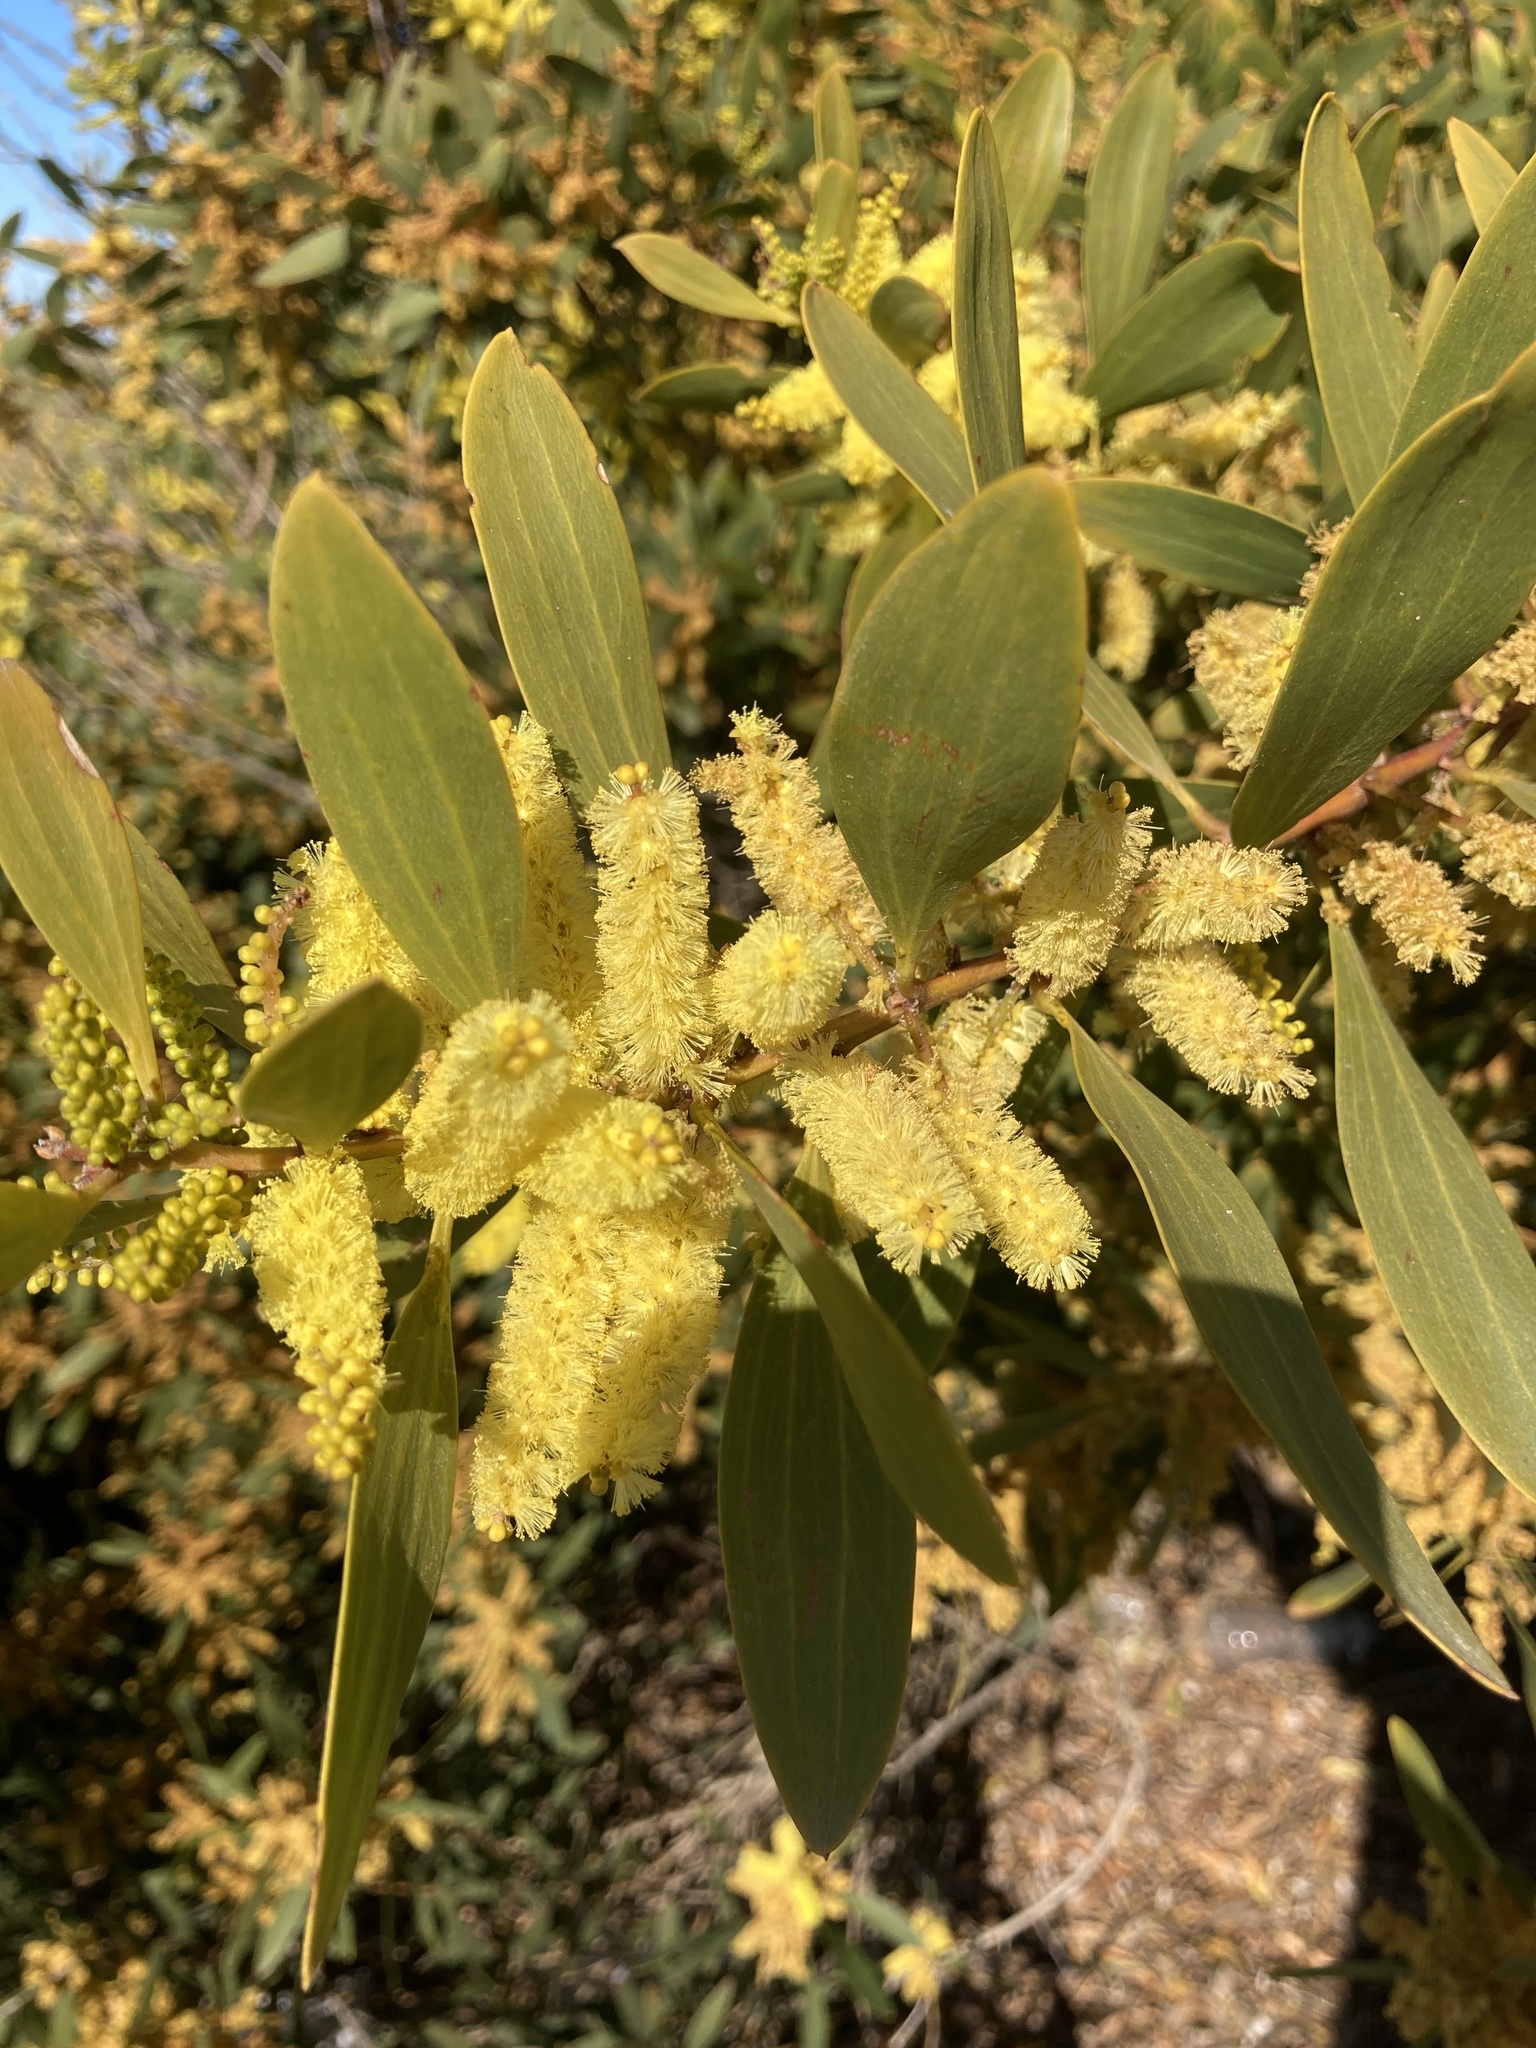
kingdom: Plantae
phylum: Tracheophyta
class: Magnoliopsida
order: Fabales
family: Fabaceae
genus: Acacia
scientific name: Acacia longifolia
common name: Sydney golden wattle
